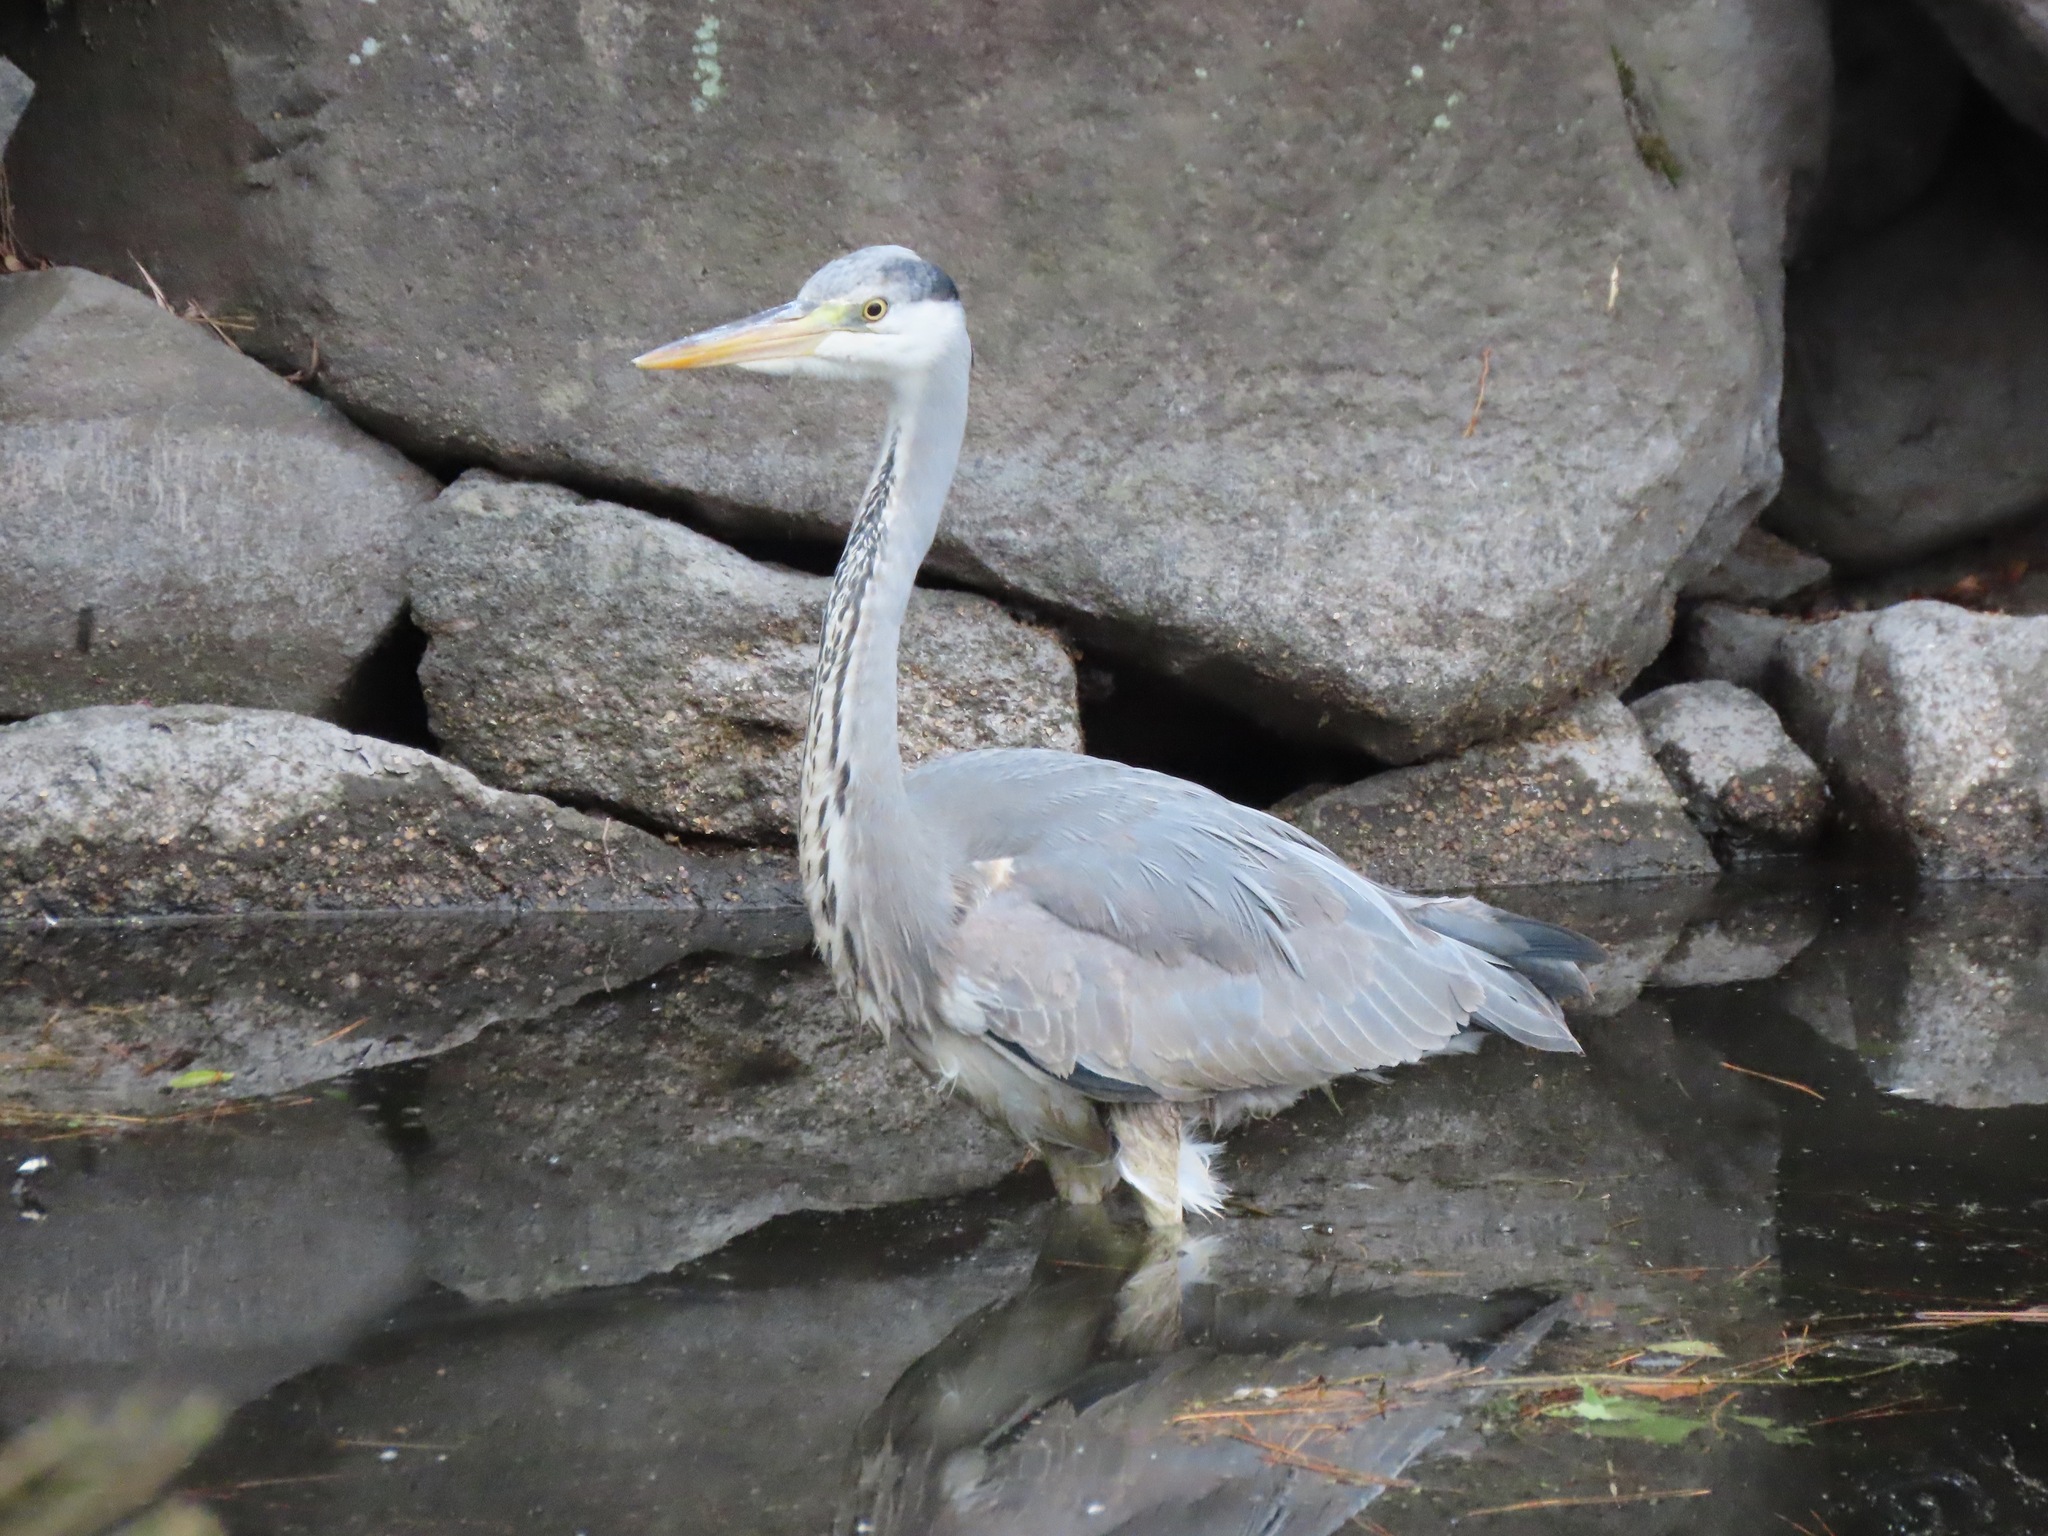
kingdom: Animalia
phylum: Chordata
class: Aves
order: Pelecaniformes
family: Ardeidae
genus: Ardea
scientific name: Ardea cinerea
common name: Grey heron
